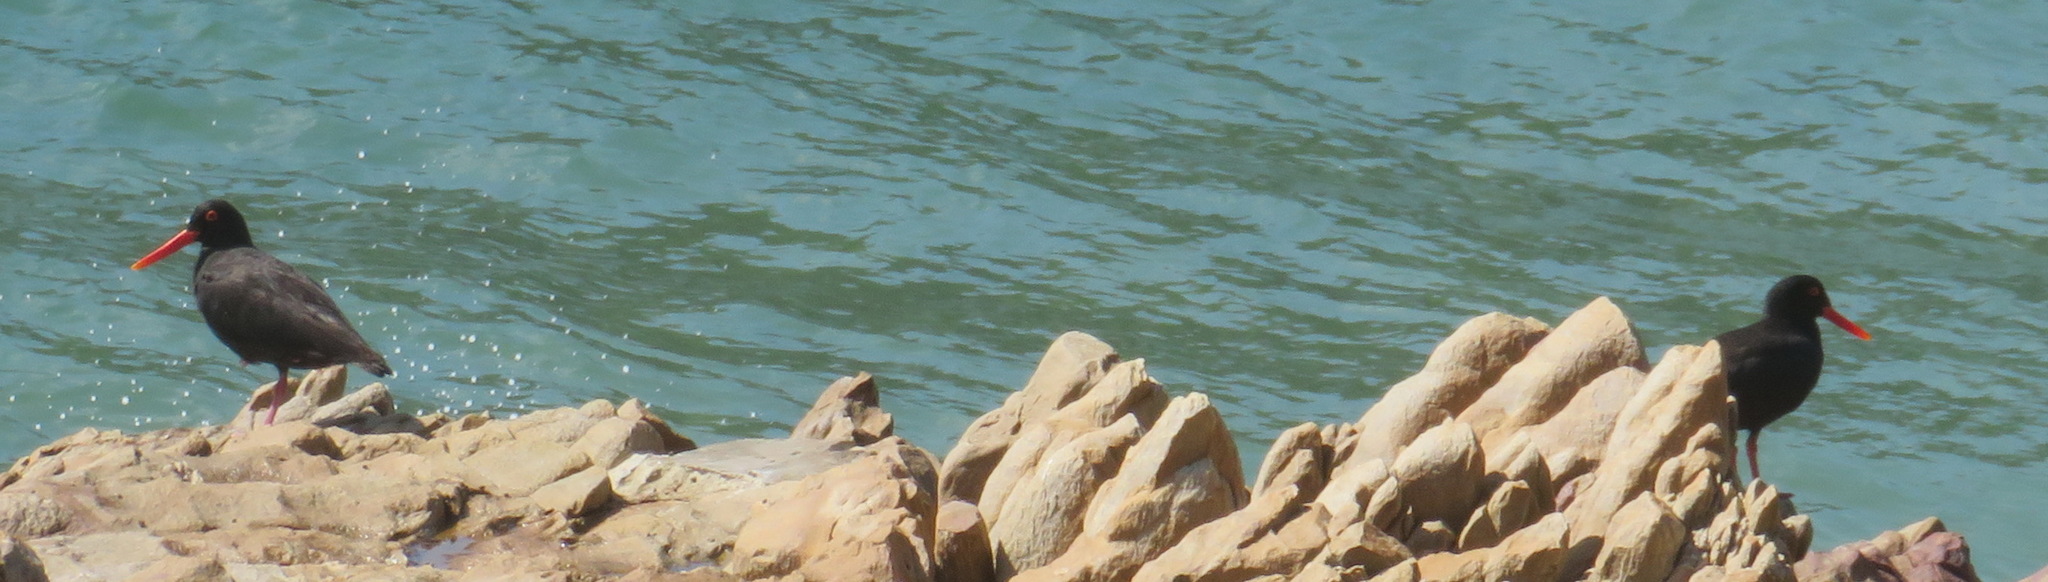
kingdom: Animalia
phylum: Chordata
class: Aves
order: Charadriiformes
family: Haematopodidae
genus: Haematopus
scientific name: Haematopus moquini
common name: African oystercatcher
